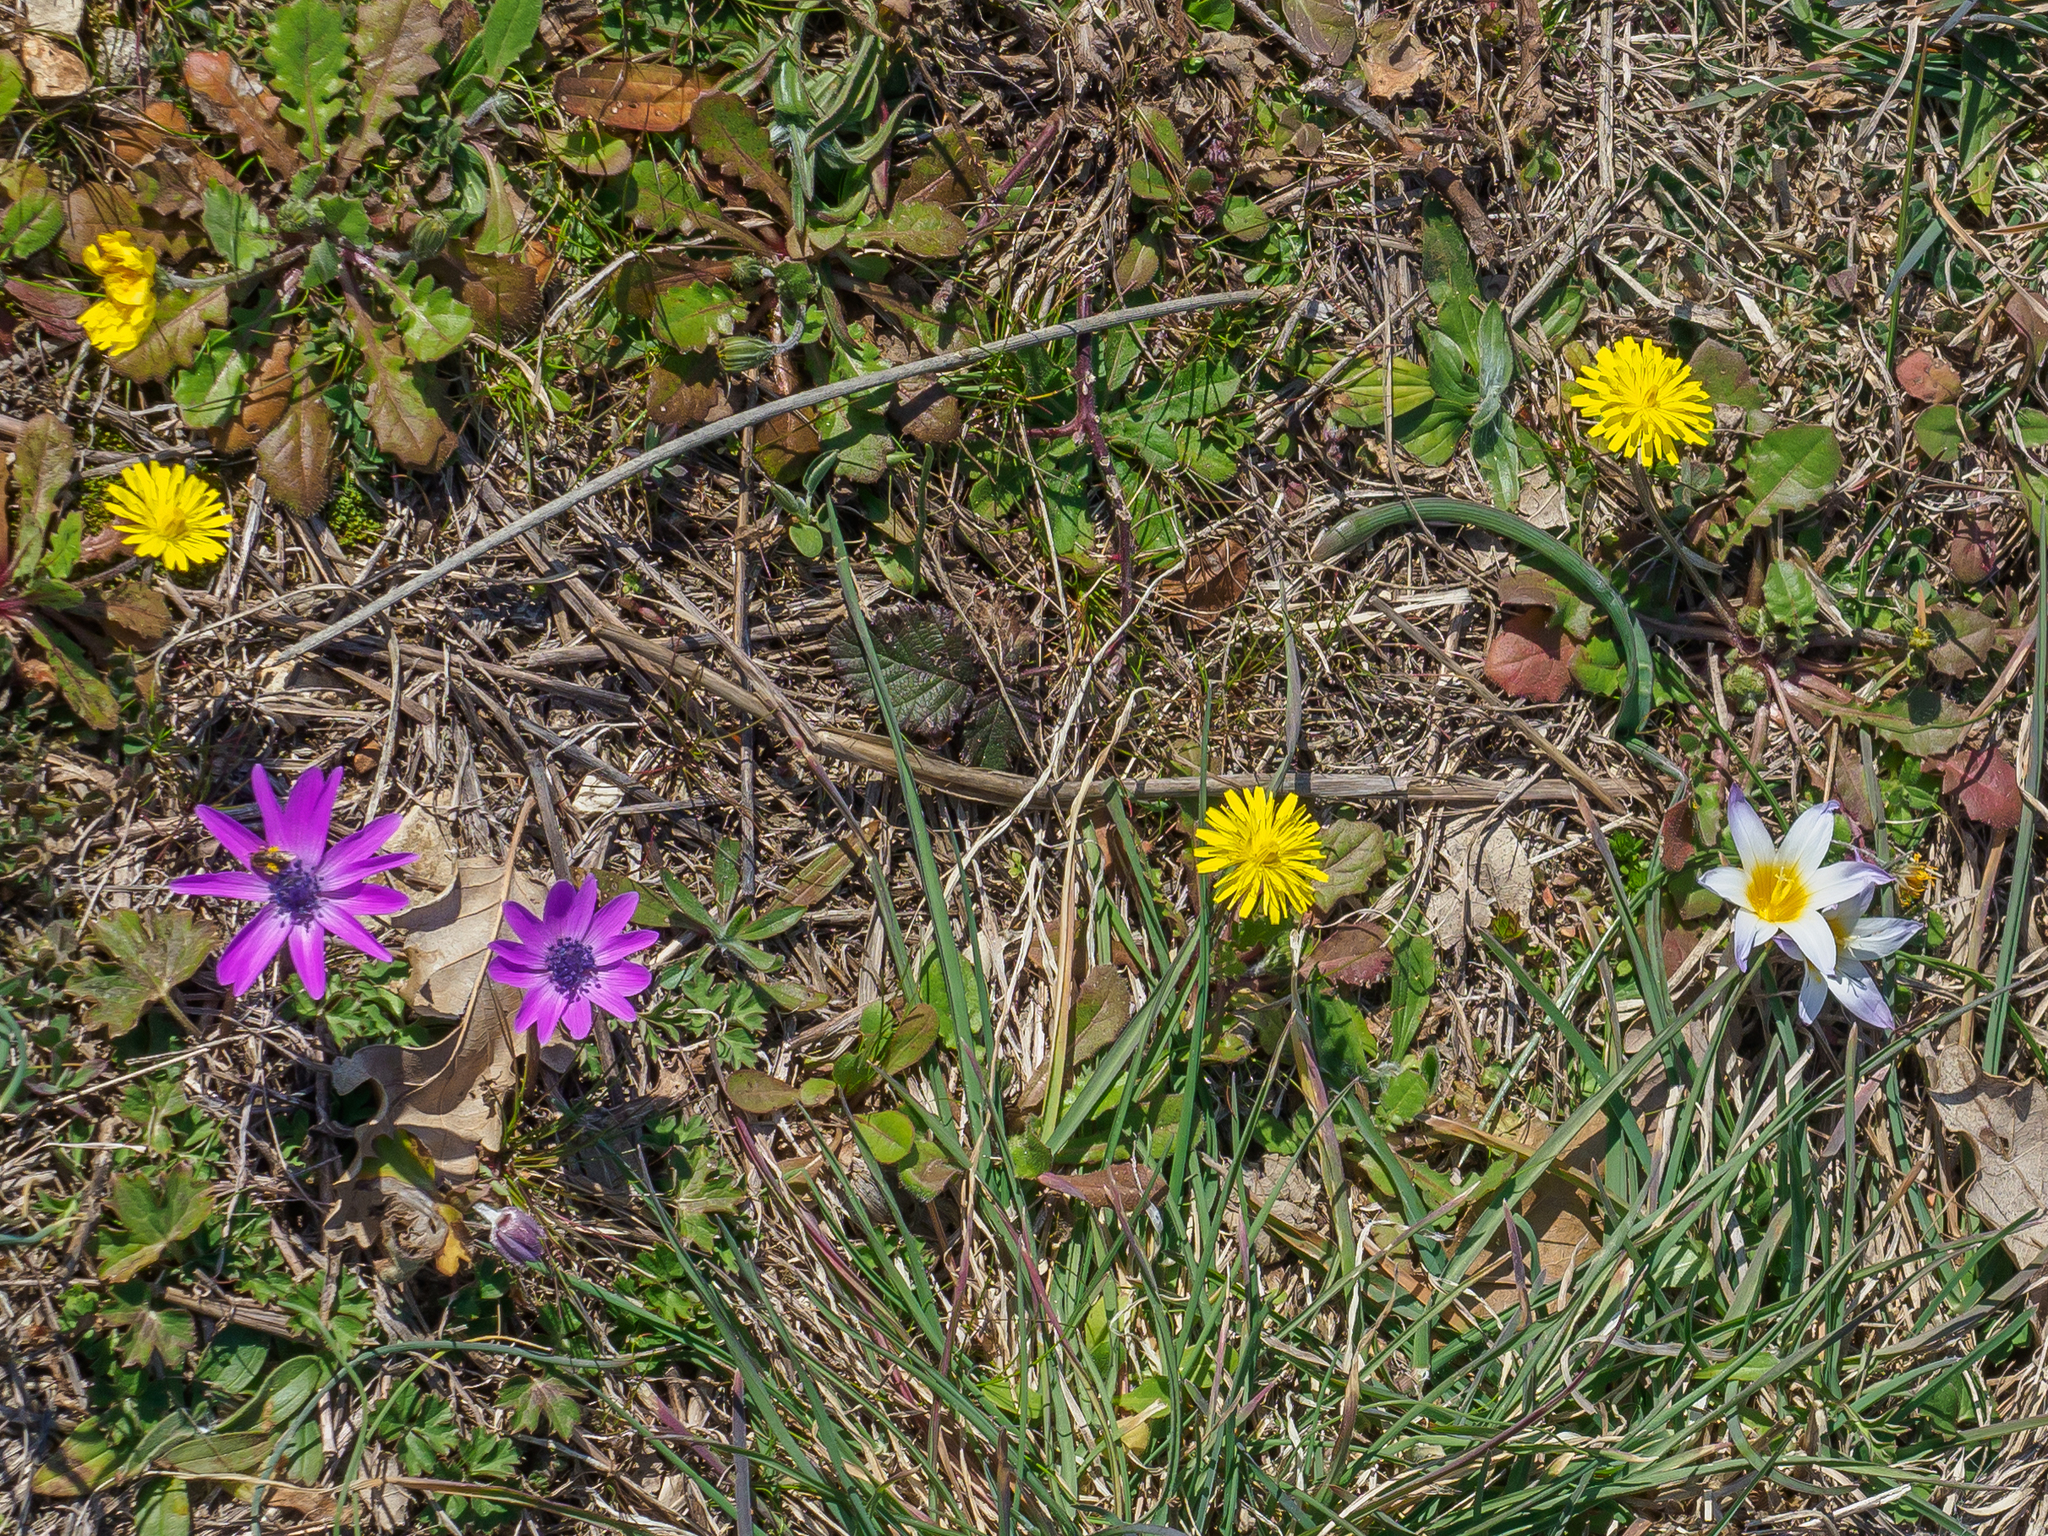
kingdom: Plantae
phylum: Tracheophyta
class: Magnoliopsida
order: Ranunculales
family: Ranunculaceae
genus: Anemone
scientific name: Anemone hortensis
